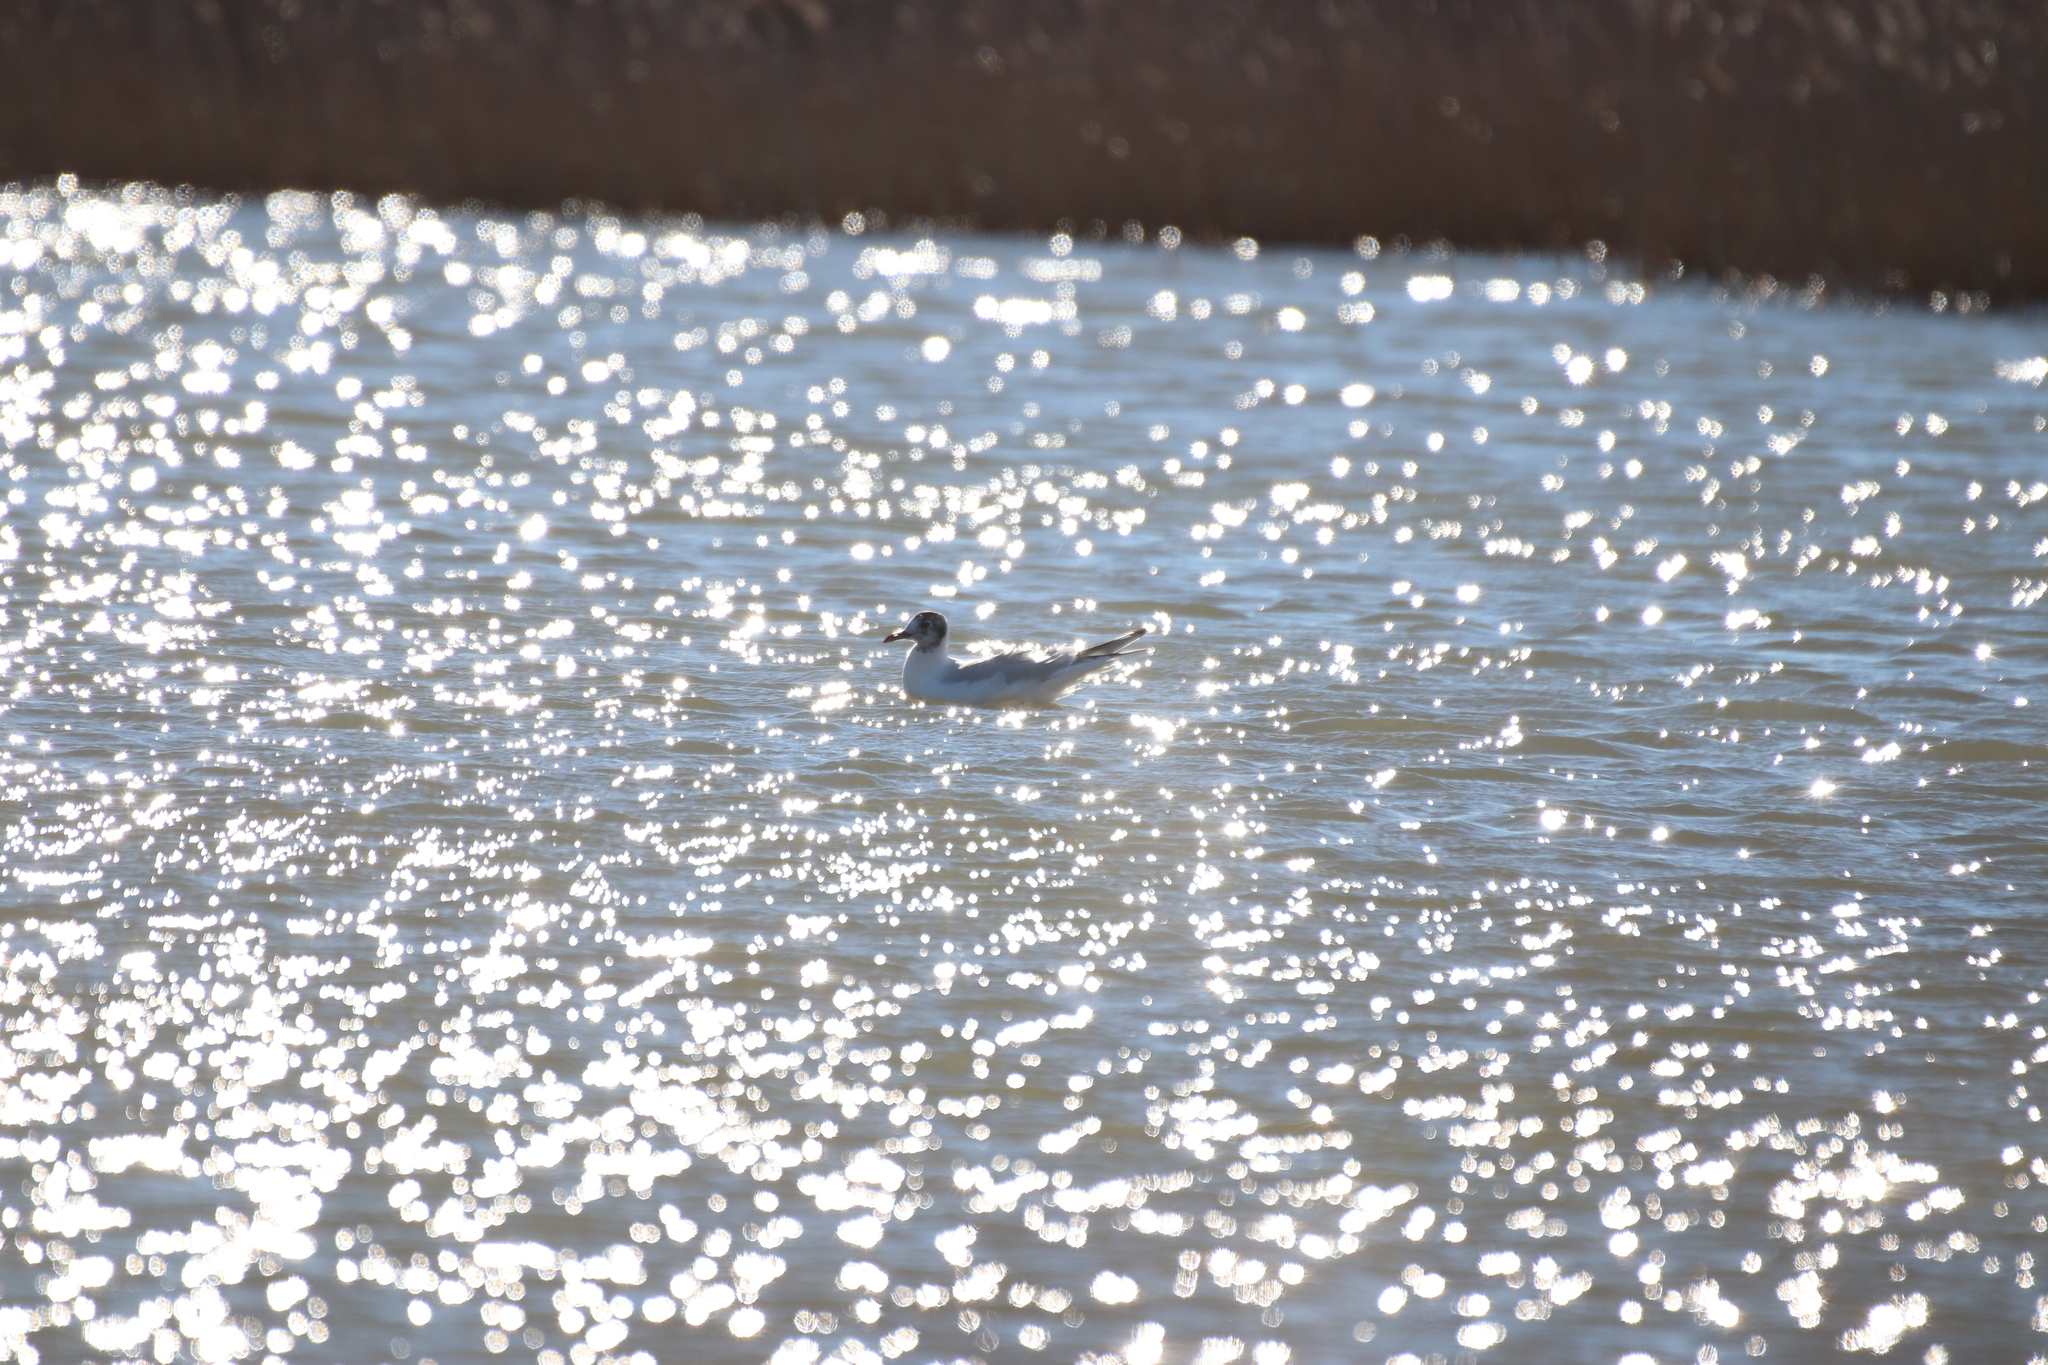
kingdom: Animalia
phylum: Chordata
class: Aves
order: Charadriiformes
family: Laridae
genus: Chroicocephalus
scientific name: Chroicocephalus ridibundus
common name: Black-headed gull
